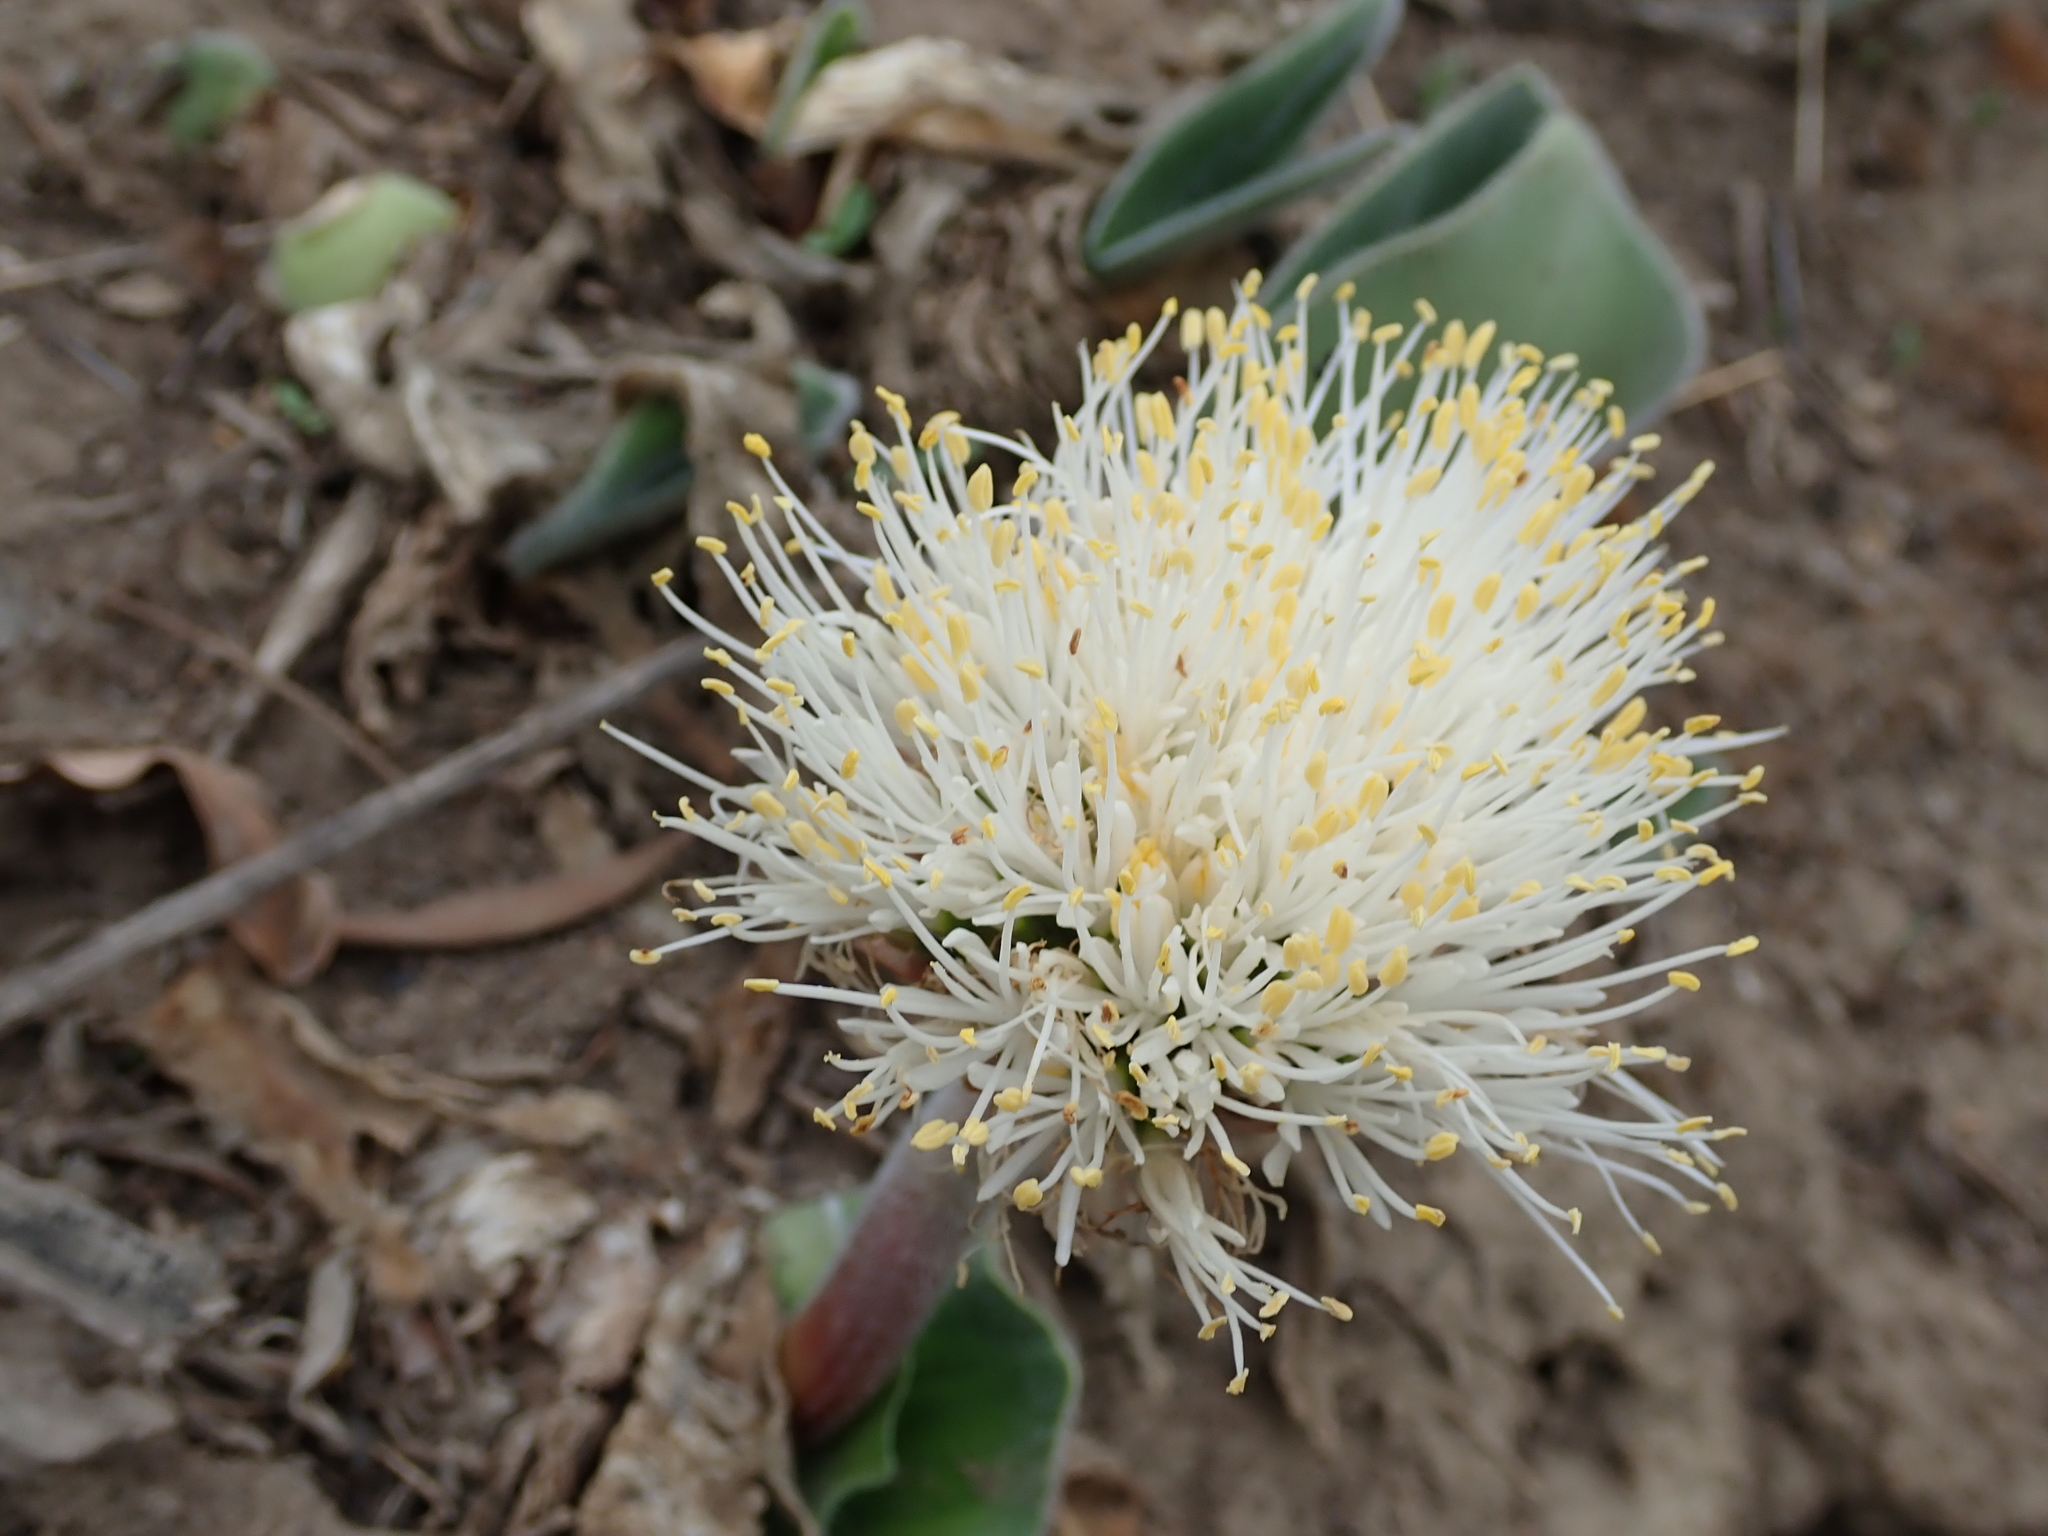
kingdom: Plantae
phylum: Tracheophyta
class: Liliopsida
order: Asparagales
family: Amaryllidaceae
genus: Haemanthus
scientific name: Haemanthus humilis
